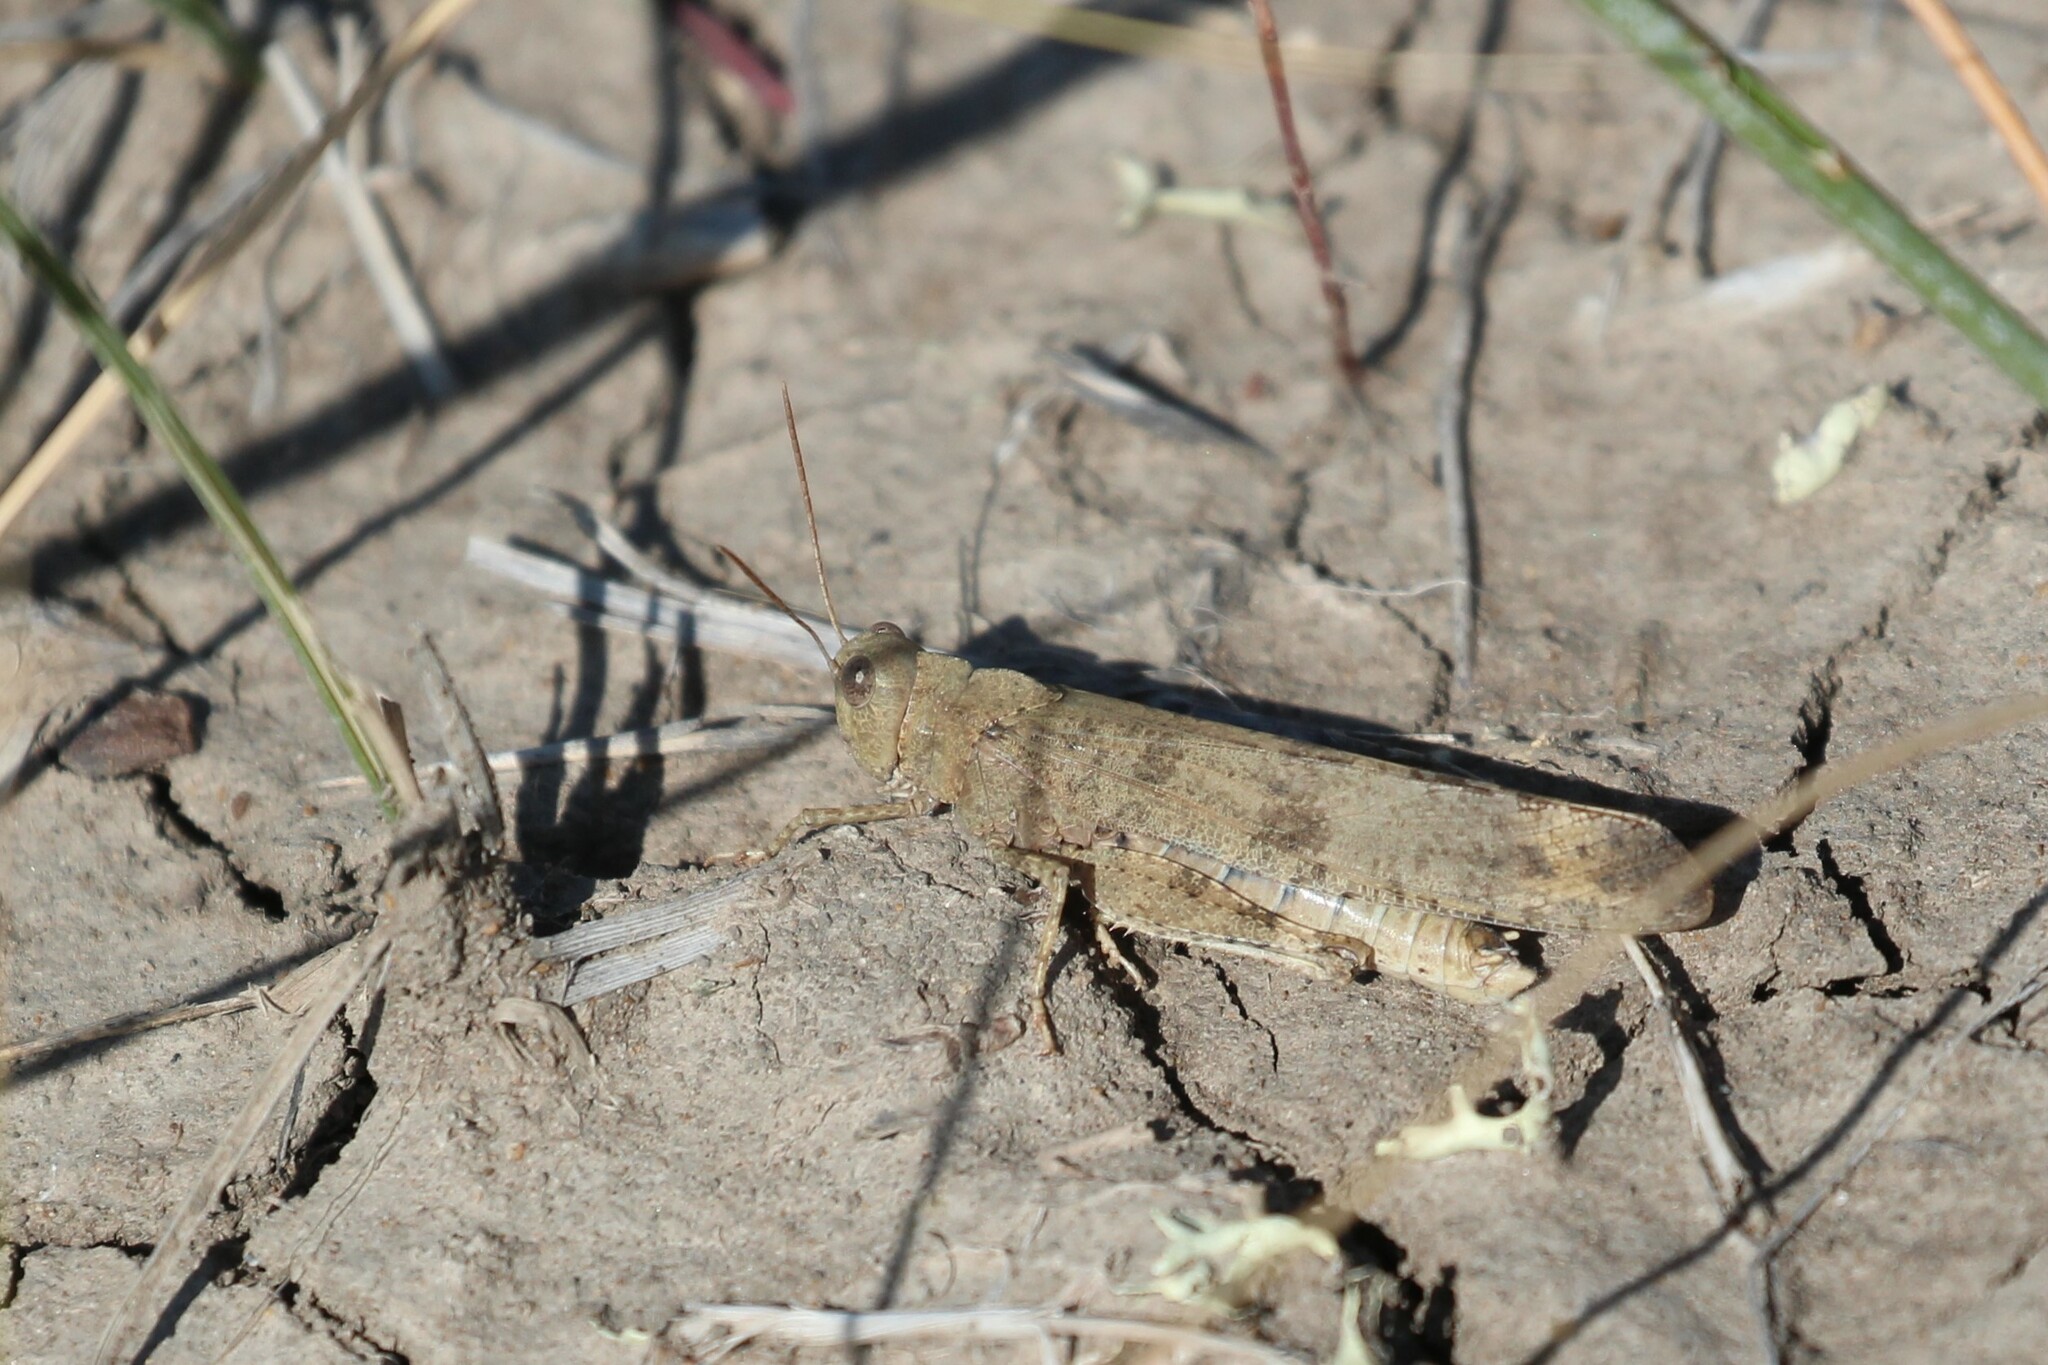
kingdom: Animalia
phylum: Arthropoda
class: Insecta
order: Orthoptera
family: Acrididae
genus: Dissosteira
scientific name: Dissosteira carolina
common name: Carolina grasshopper
